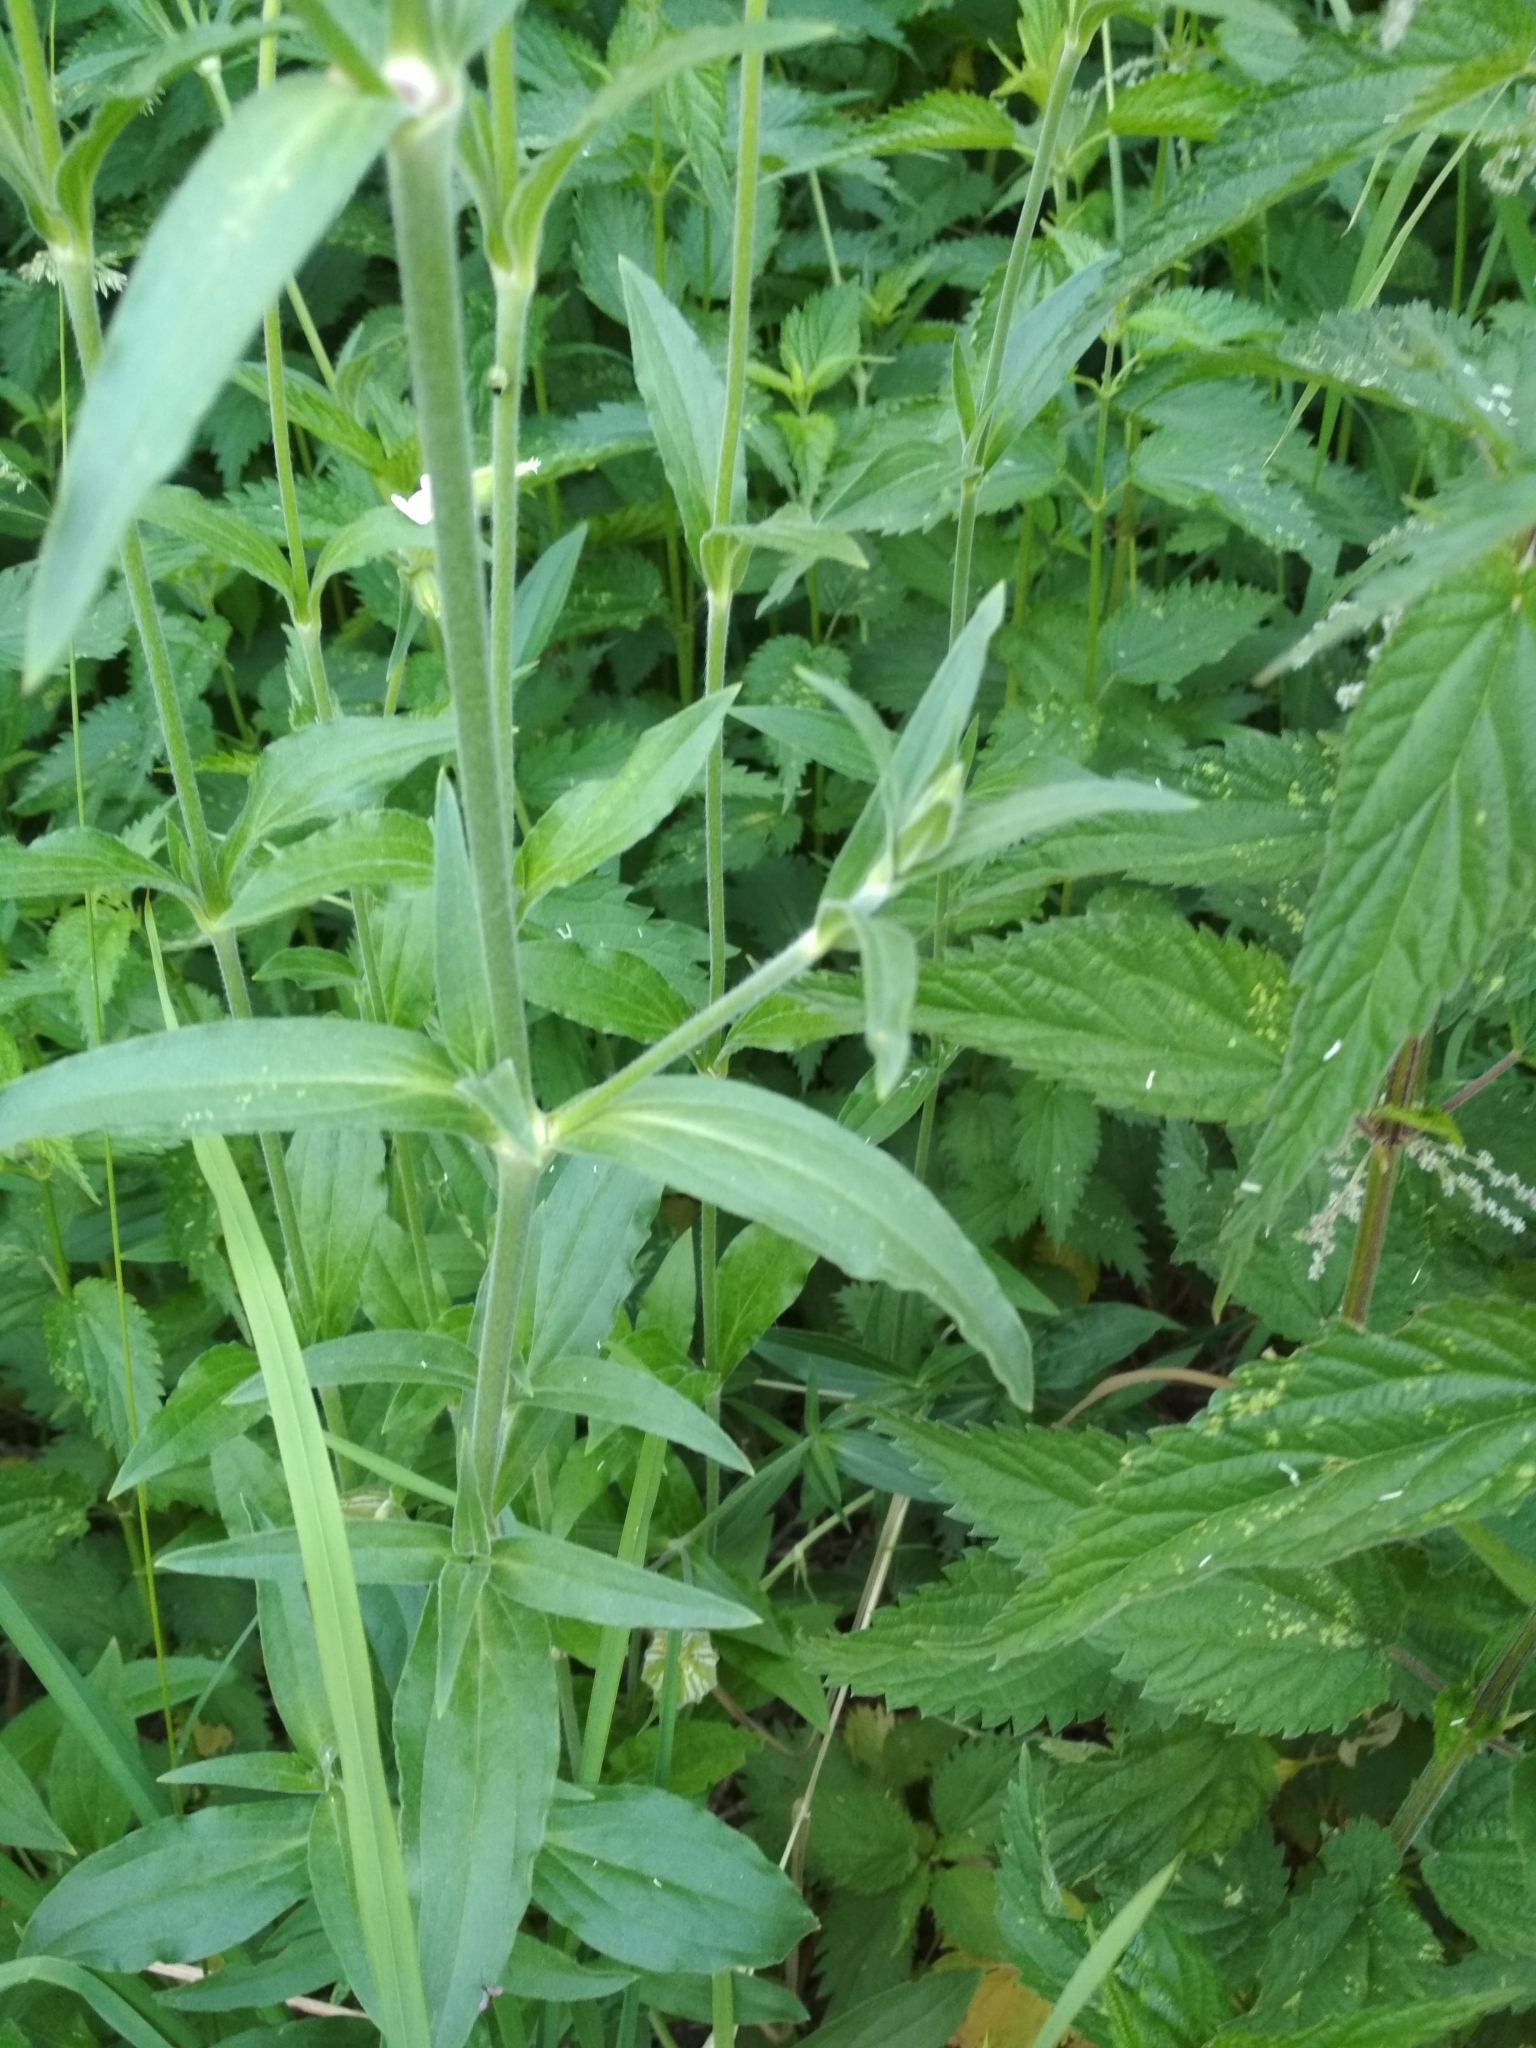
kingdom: Plantae
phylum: Tracheophyta
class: Magnoliopsida
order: Caryophyllales
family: Caryophyllaceae
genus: Silene
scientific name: Silene latifolia
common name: White campion
